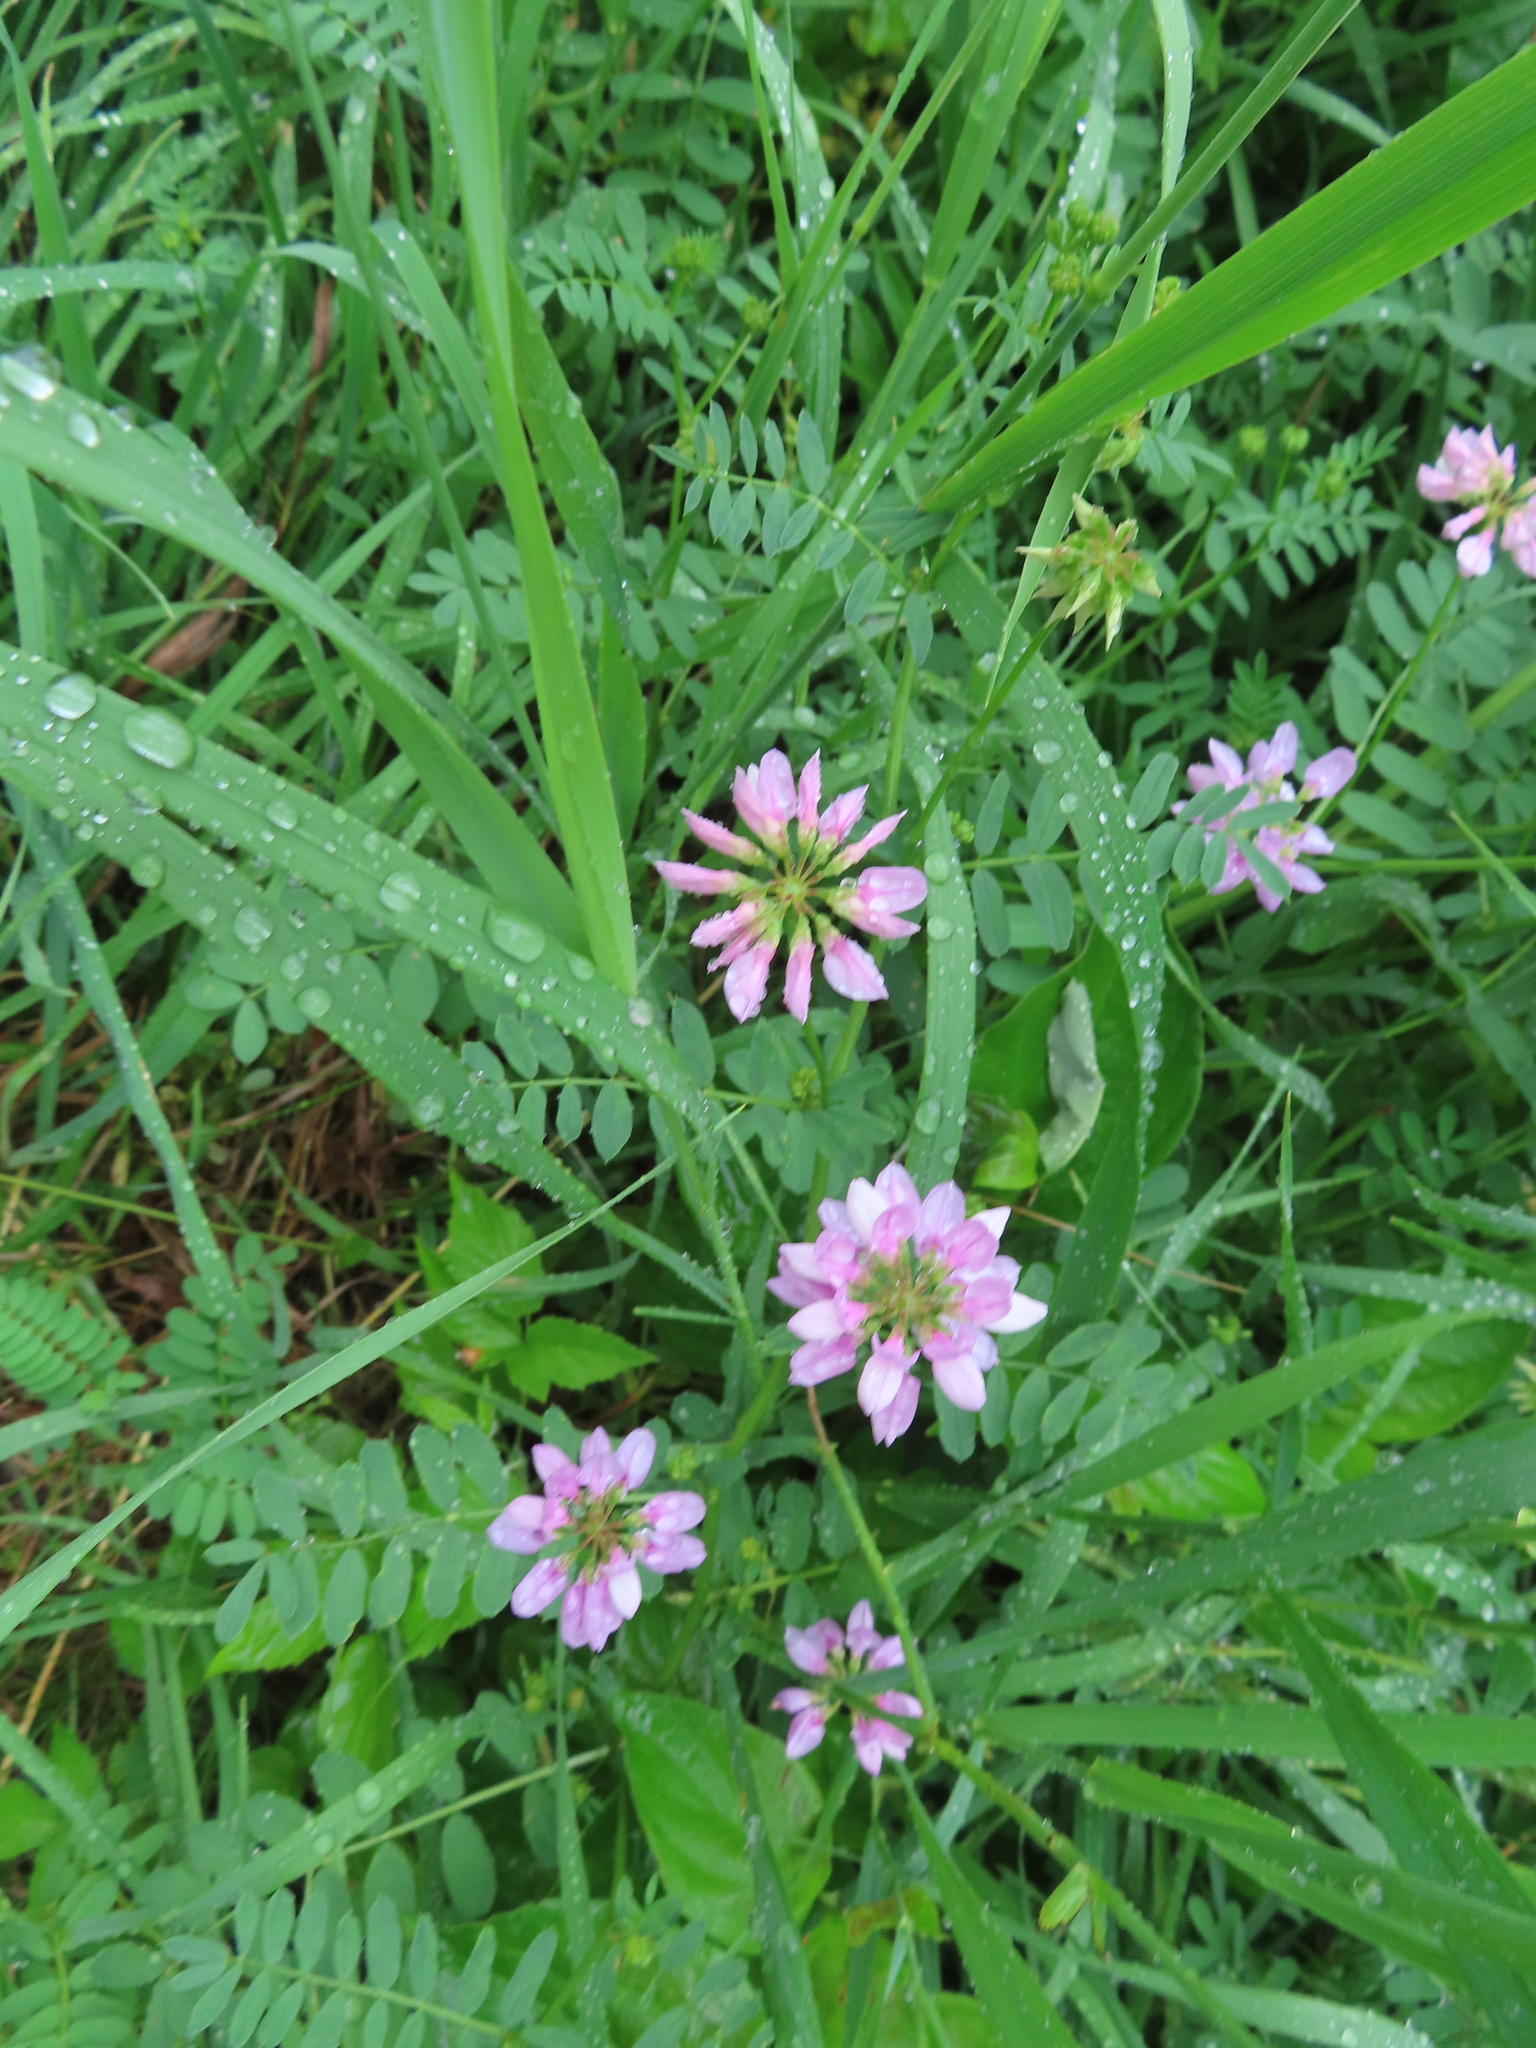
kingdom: Plantae
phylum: Tracheophyta
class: Magnoliopsida
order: Fabales
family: Fabaceae
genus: Coronilla
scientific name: Coronilla varia
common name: Crownvetch
